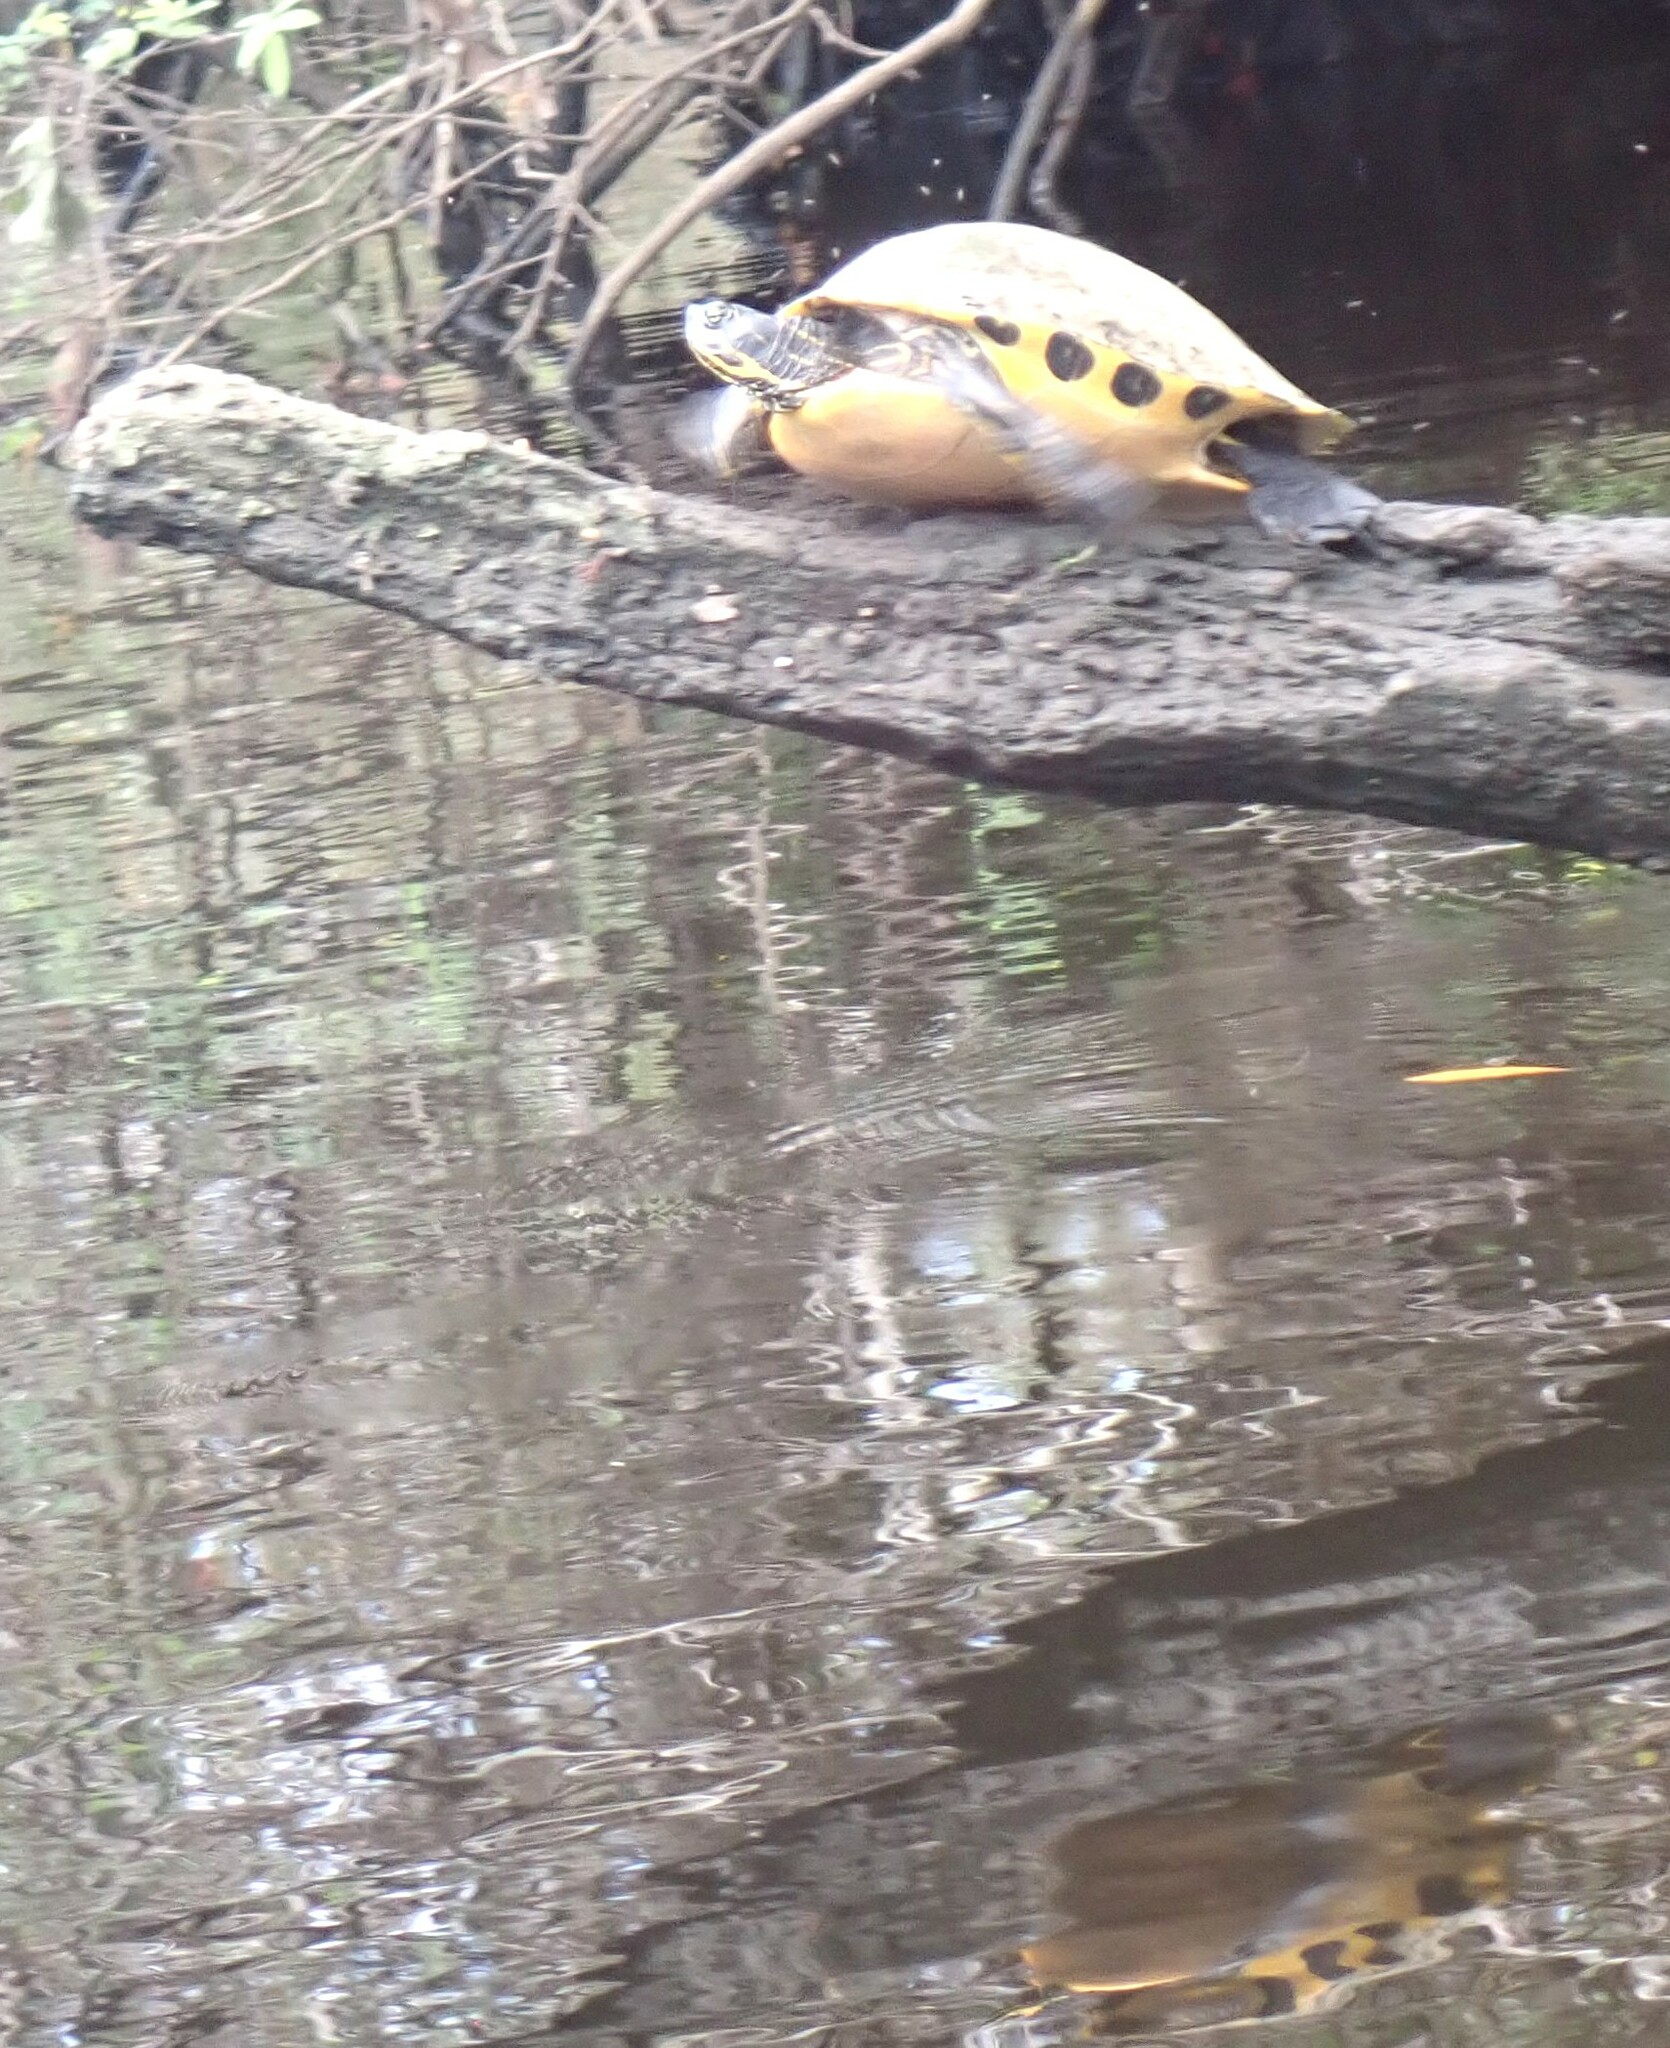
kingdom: Animalia
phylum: Chordata
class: Testudines
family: Emydidae
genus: Pseudemys
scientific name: Pseudemys concinna
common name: Eastern river cooter
